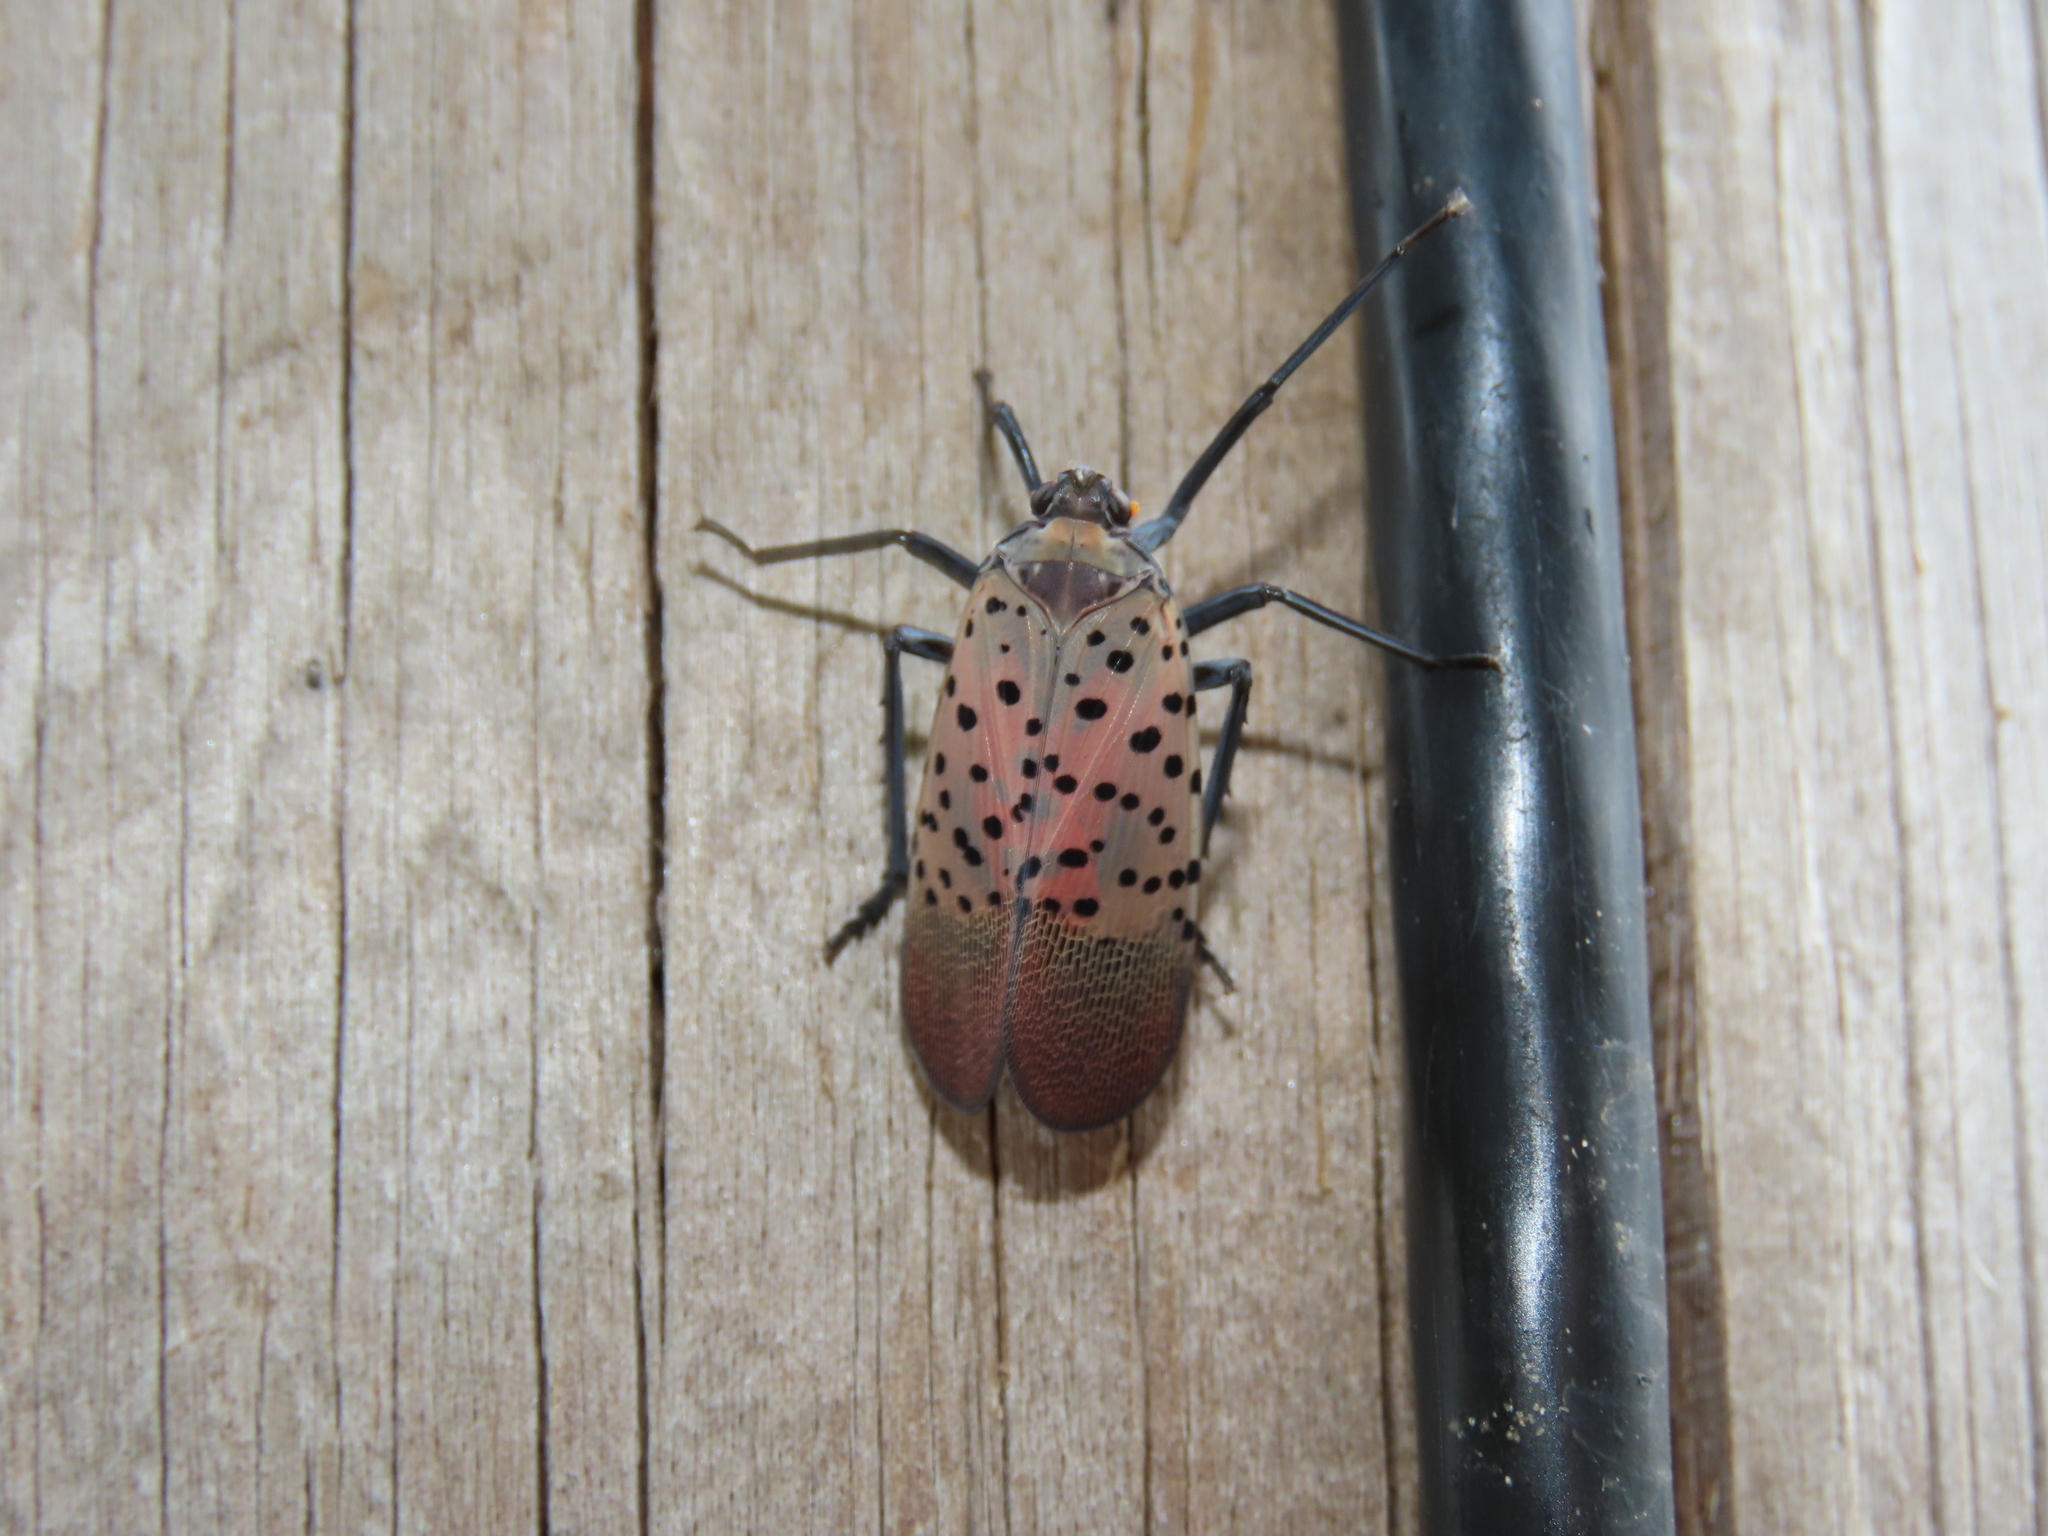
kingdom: Animalia
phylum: Arthropoda
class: Insecta
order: Hemiptera
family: Fulgoridae
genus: Lycorma
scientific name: Lycorma delicatula
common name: Spotted lanternfly
